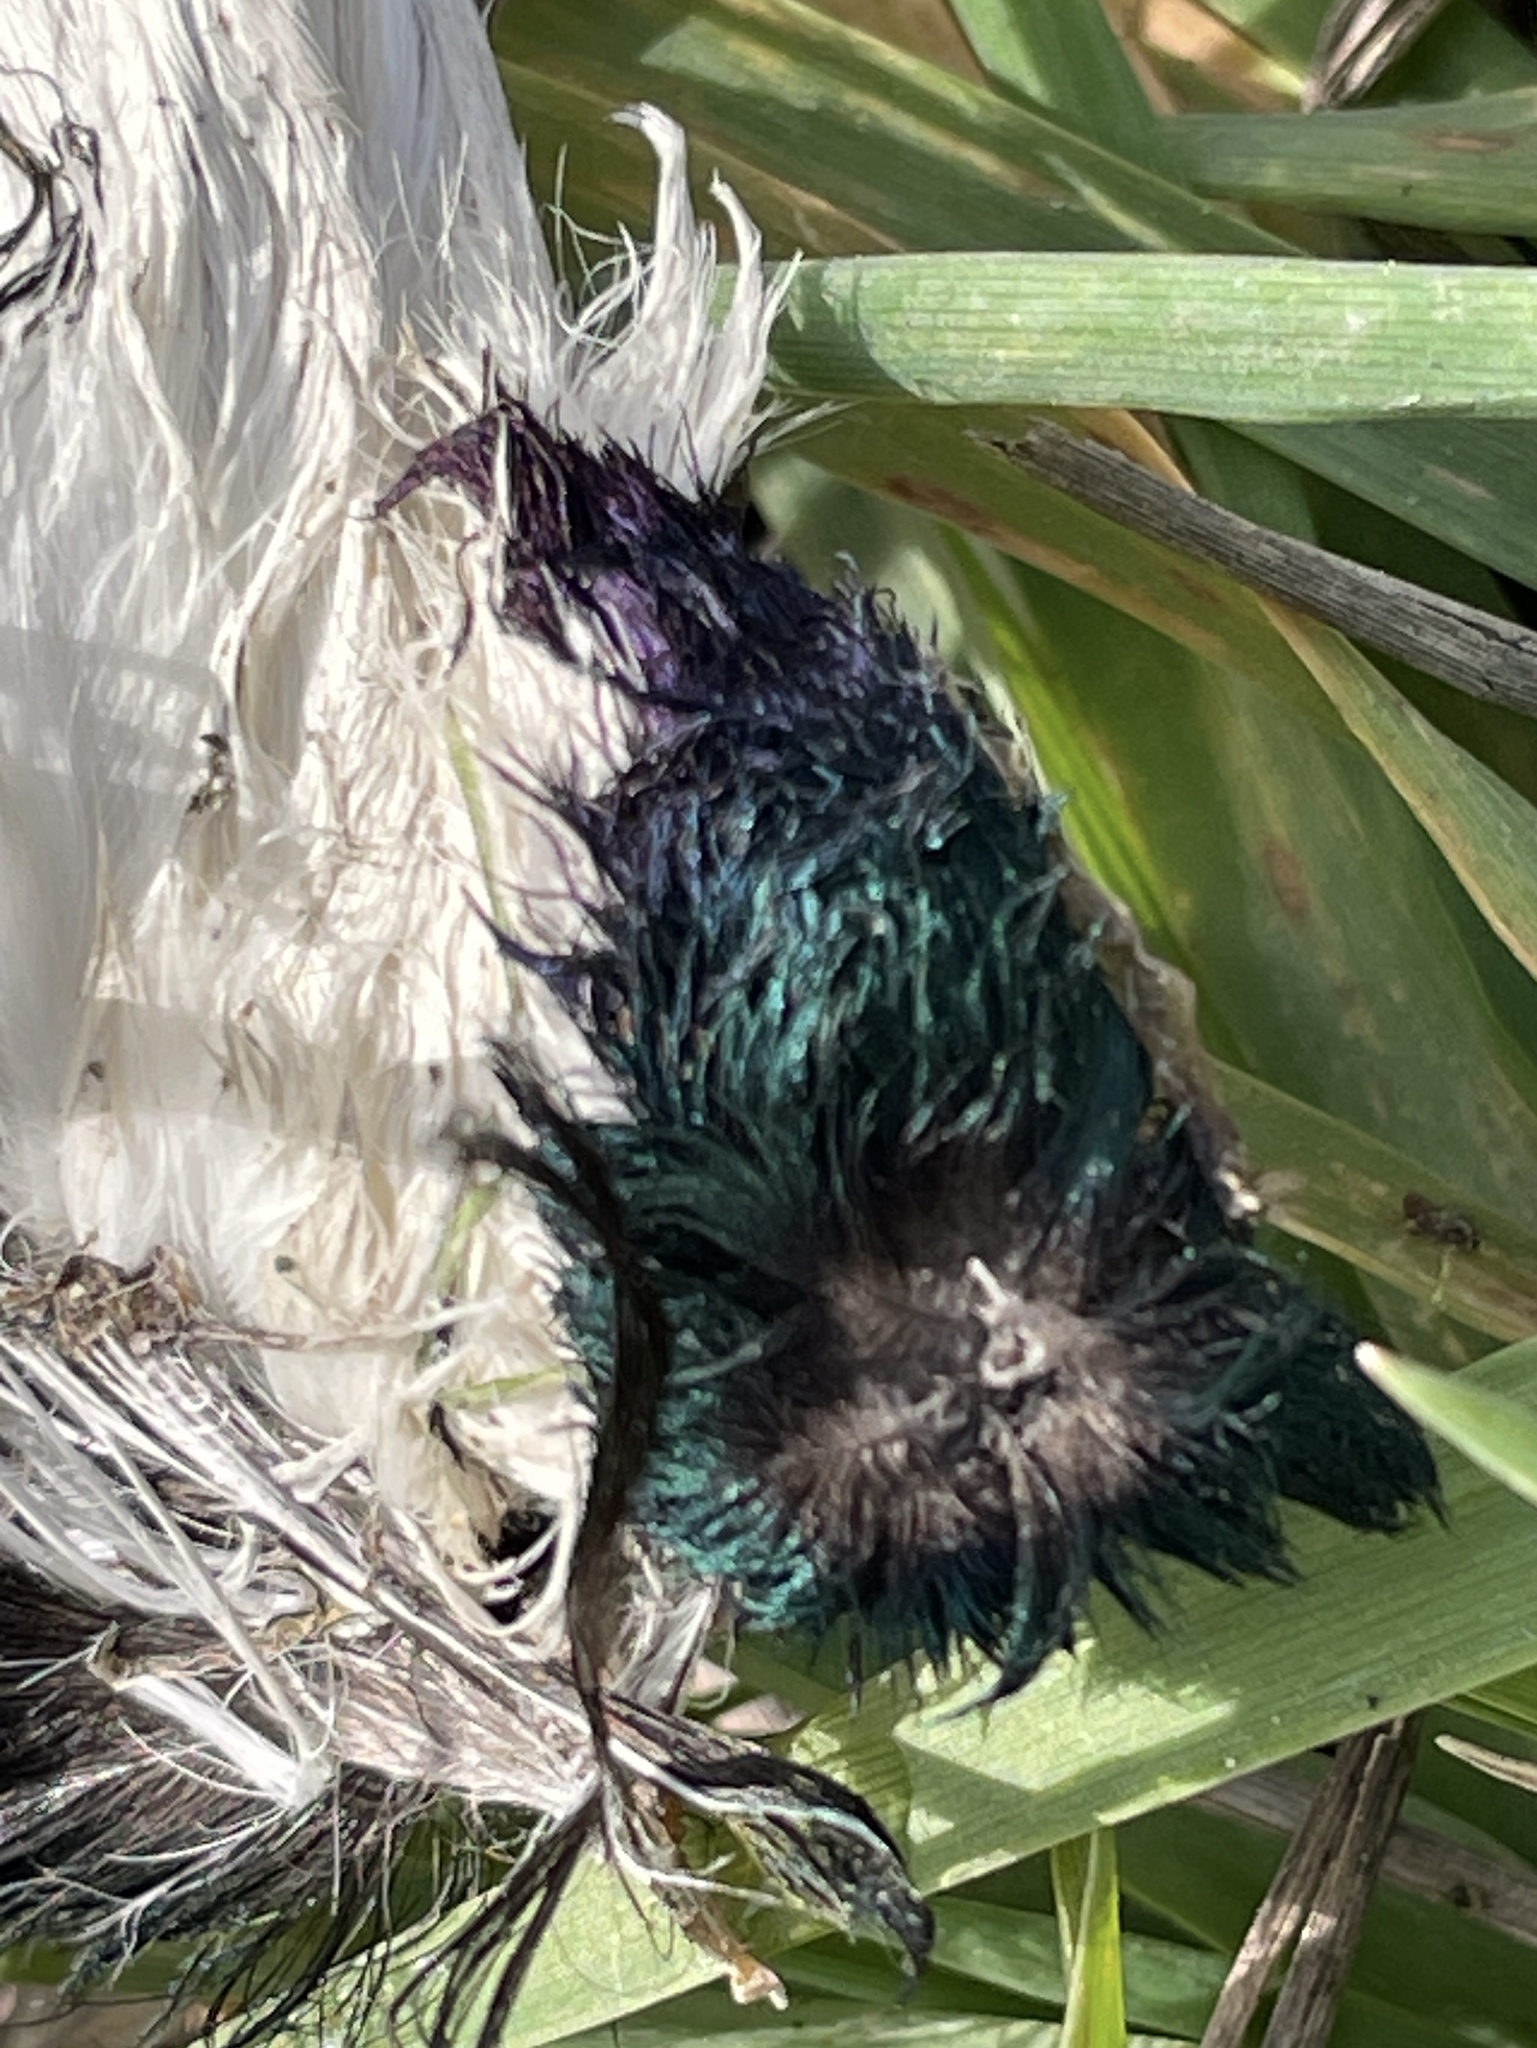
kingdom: Animalia
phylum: Chordata
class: Aves
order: Anseriformes
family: Anatidae
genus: Bucephala
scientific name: Bucephala albeola
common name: Bufflehead
